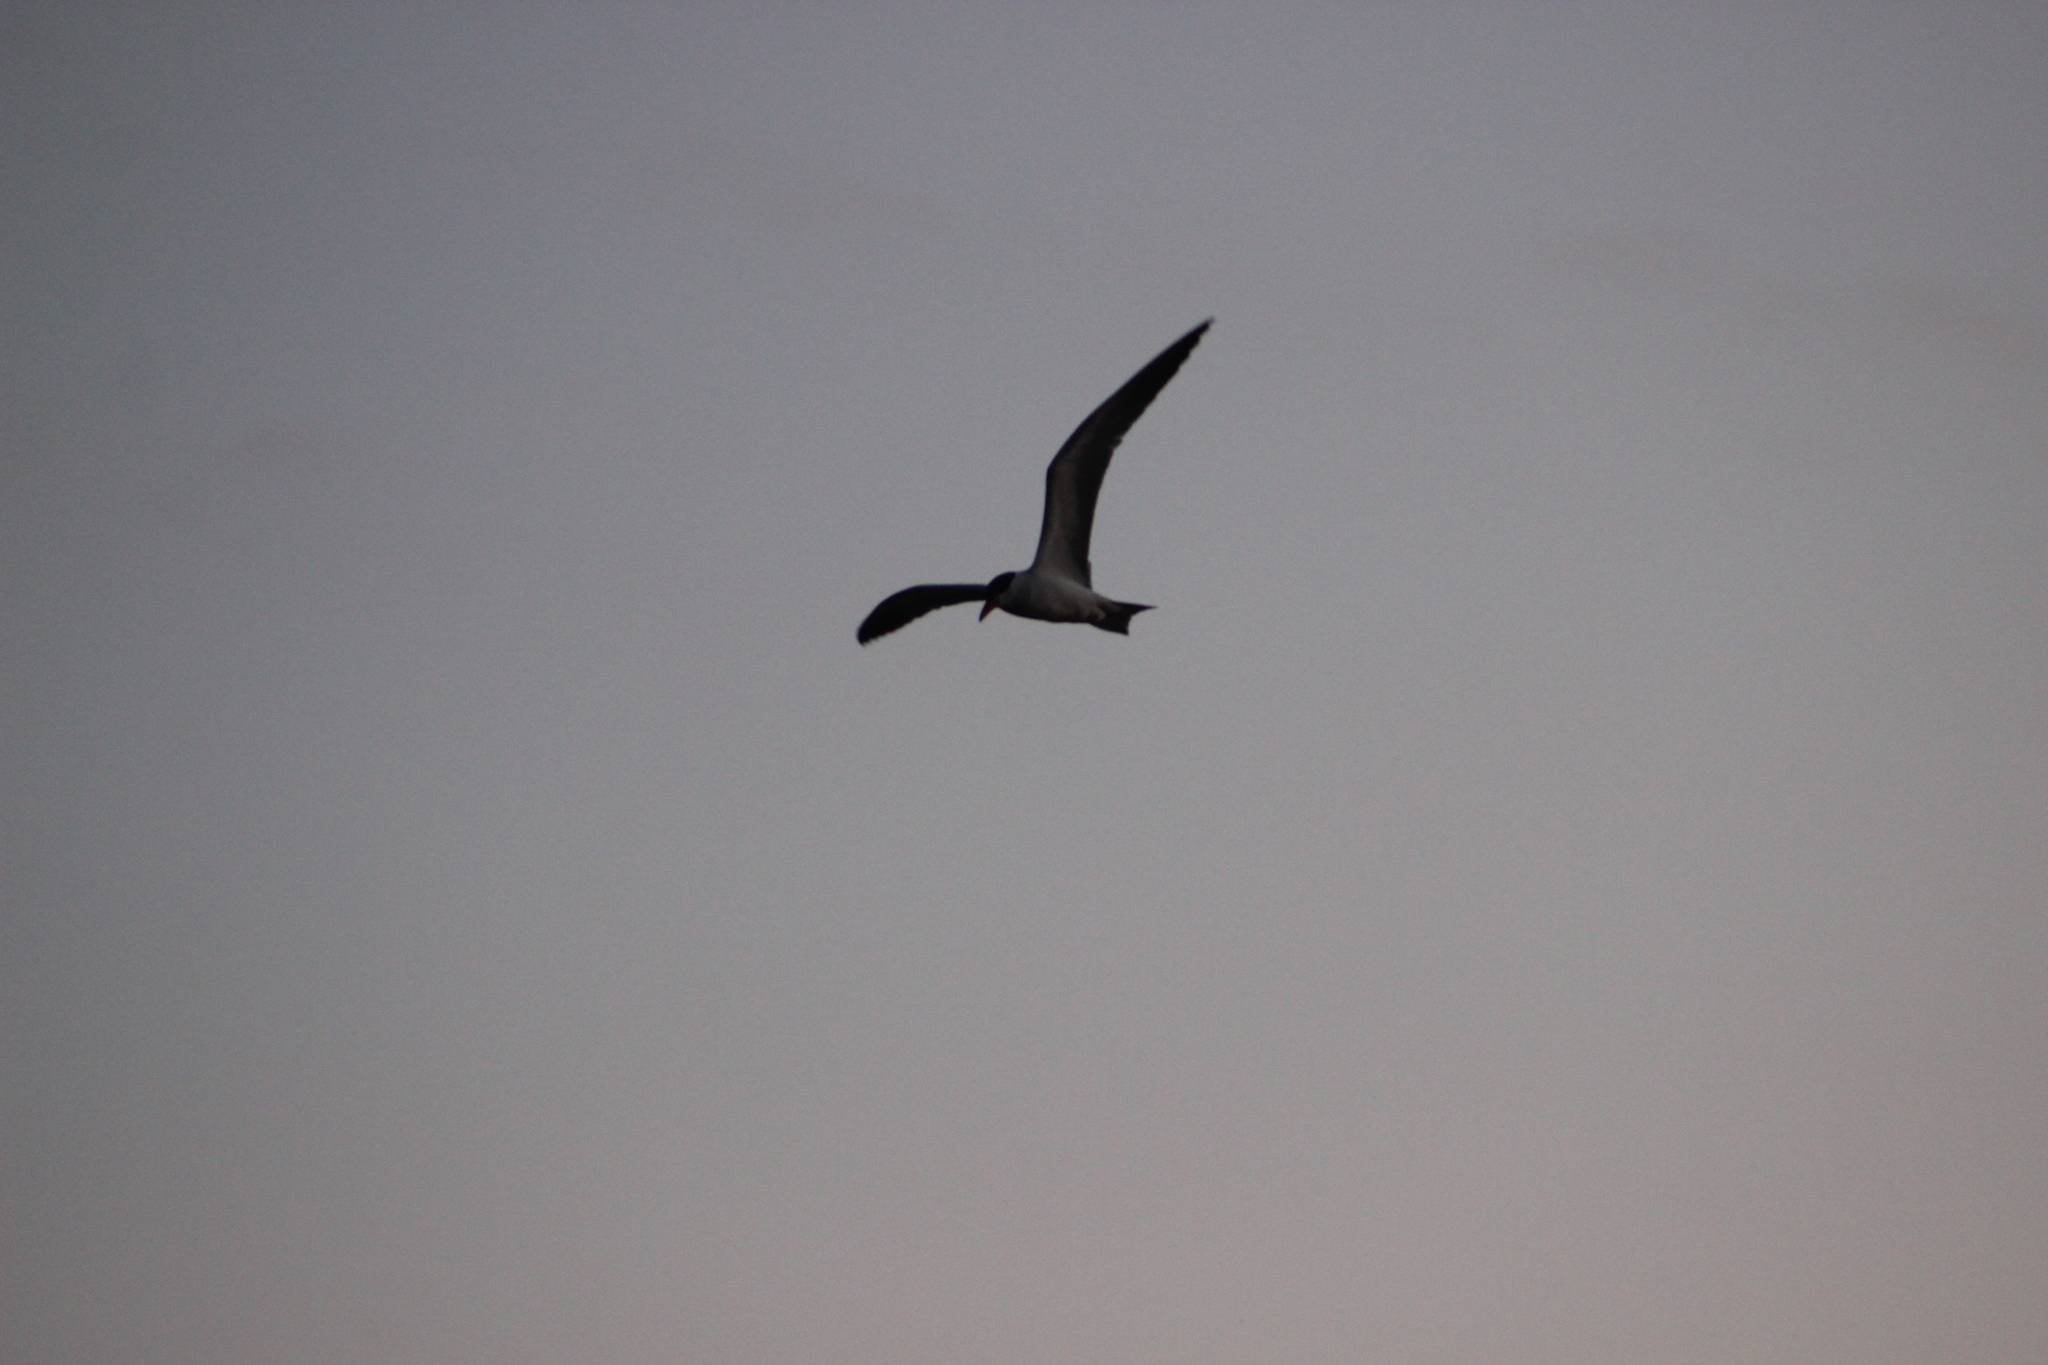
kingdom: Animalia
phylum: Chordata
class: Aves
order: Charadriiformes
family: Laridae
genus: Hydroprogne
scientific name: Hydroprogne caspia
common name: Caspian tern
